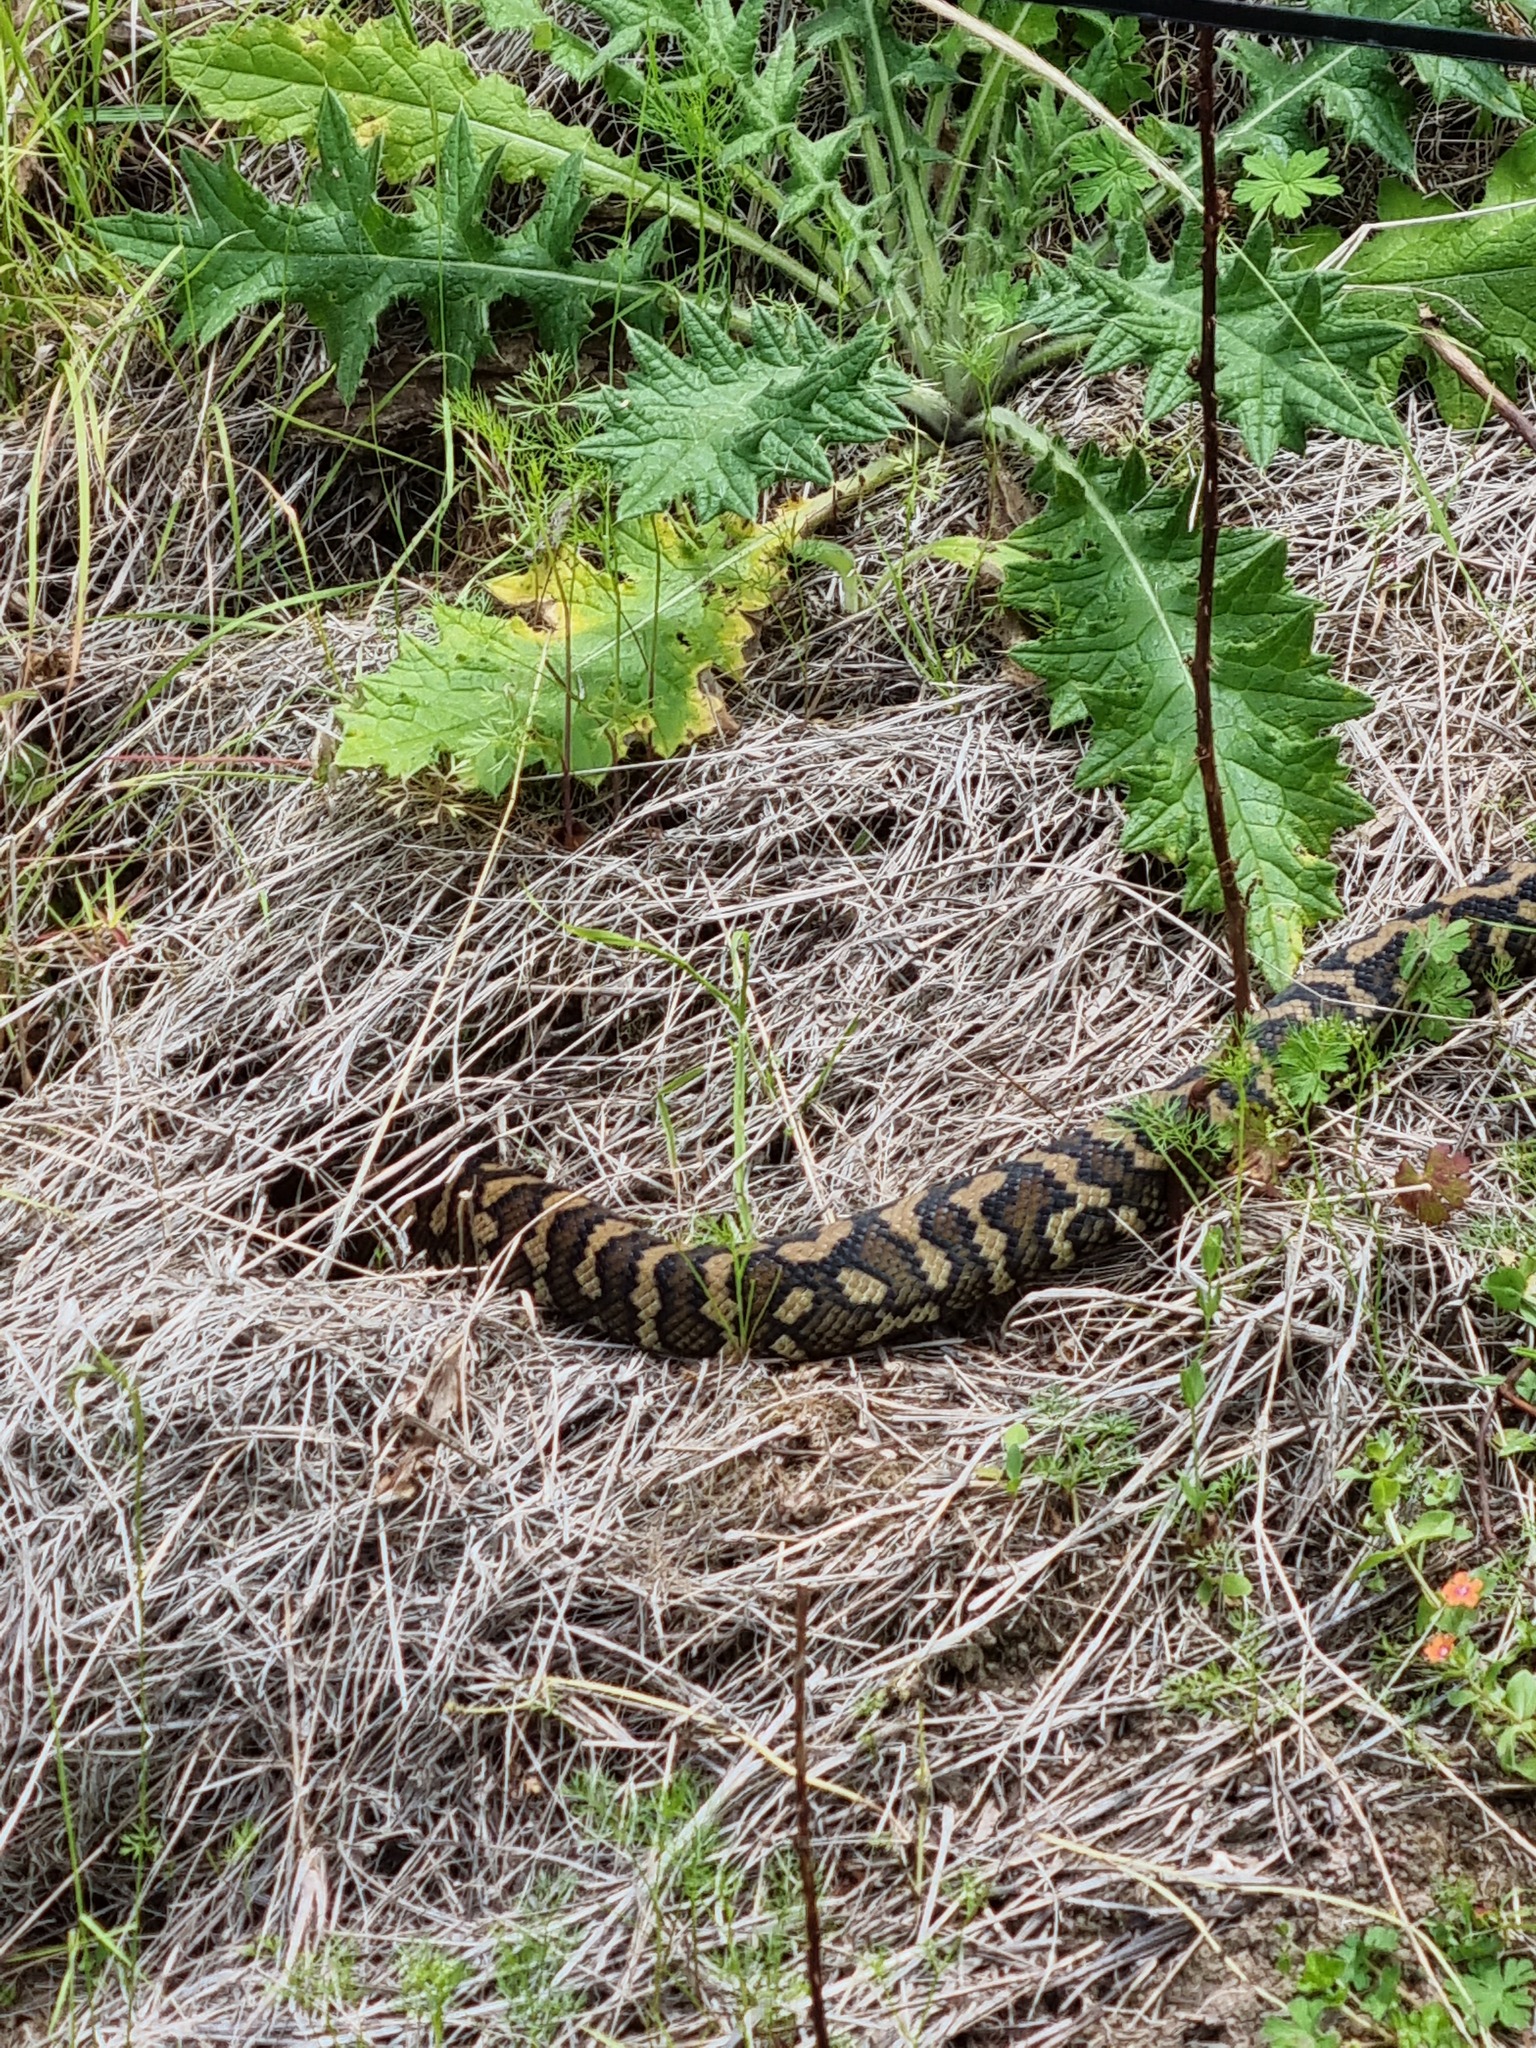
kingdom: Animalia
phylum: Chordata
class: Squamata
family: Pythonidae
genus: Morelia
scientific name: Morelia spilota
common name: Carpet python
